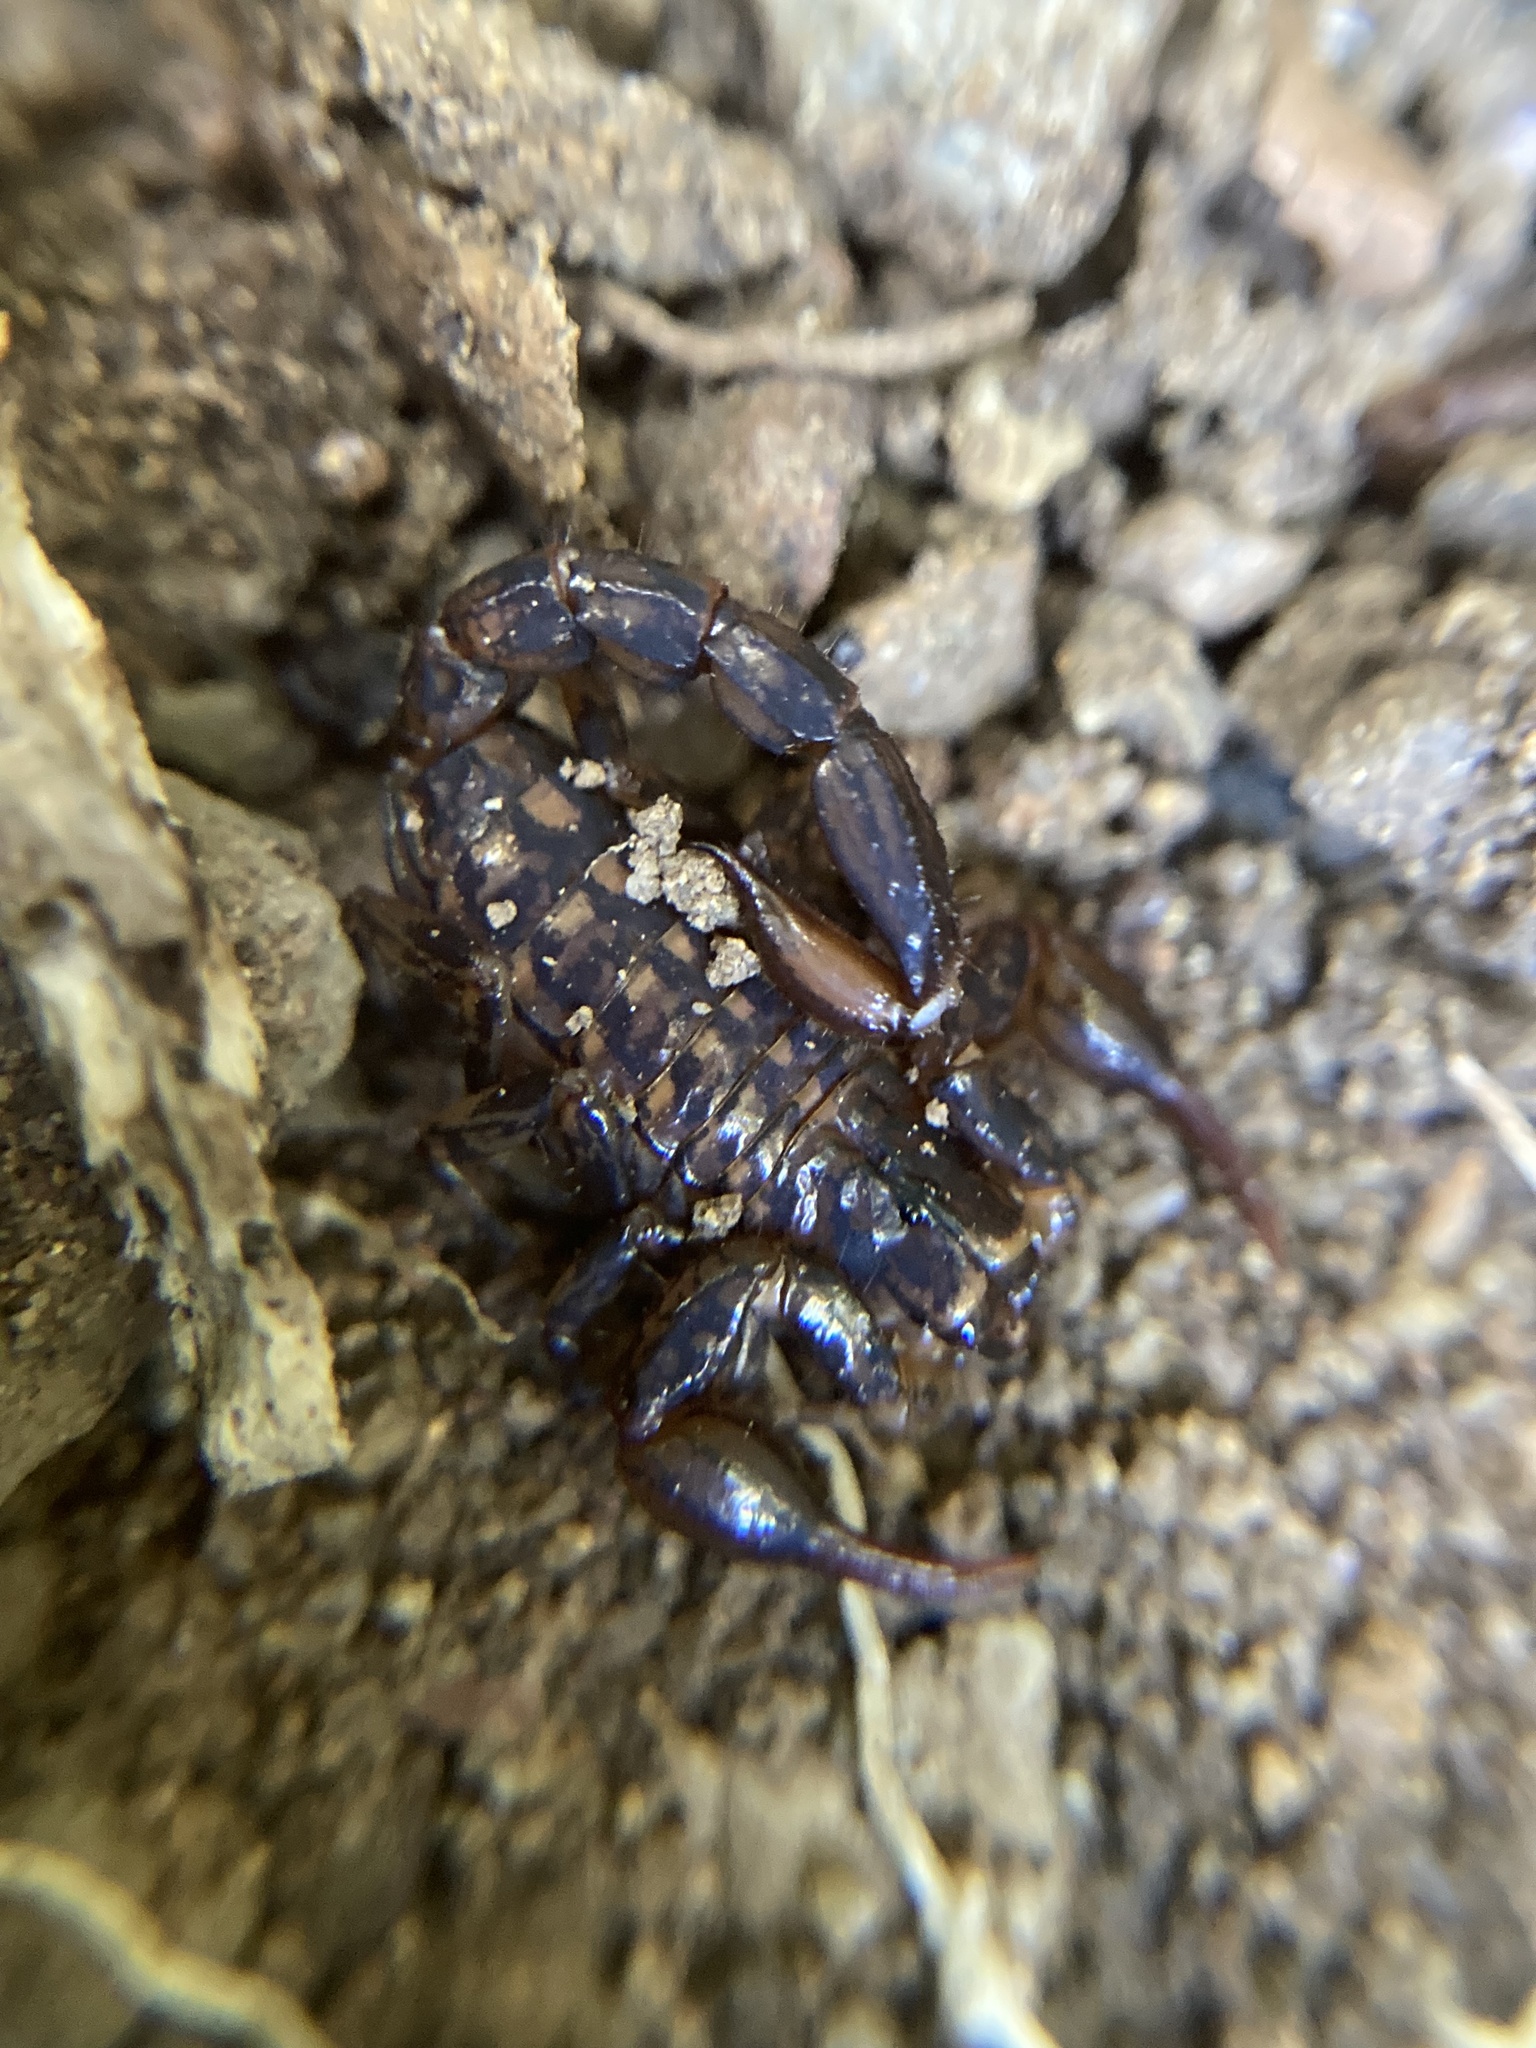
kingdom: Animalia
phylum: Arthropoda
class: Arachnida
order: Scorpiones
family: Bothriuridae
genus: Cercophonius
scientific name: Cercophonius squama
